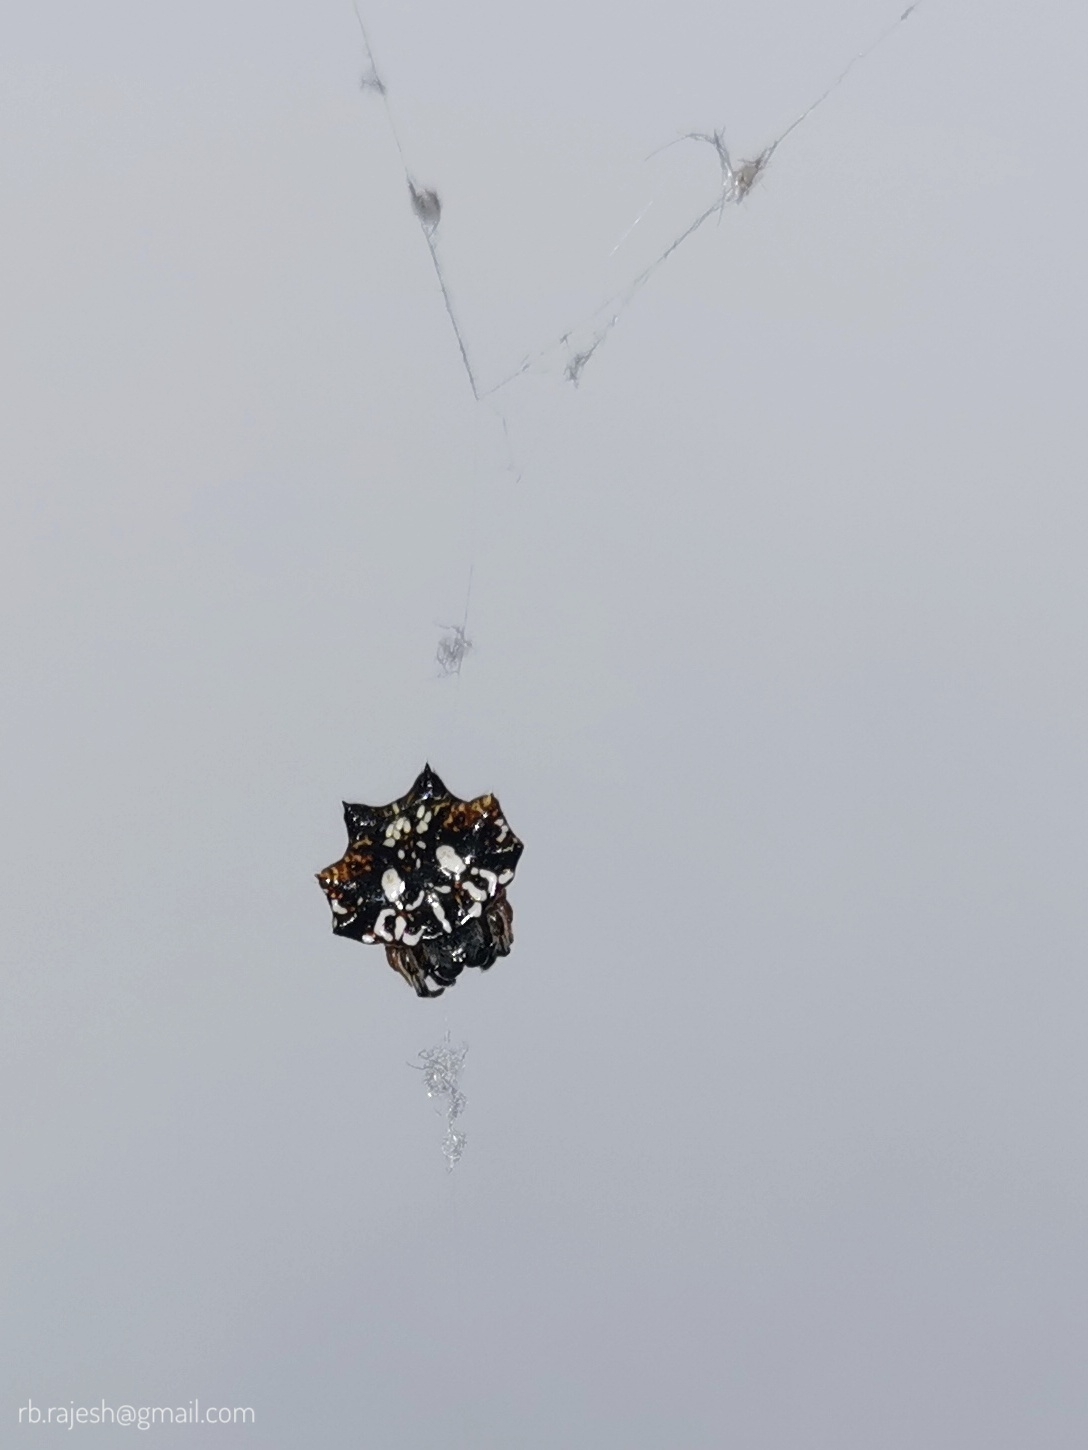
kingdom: Animalia
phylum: Arthropoda
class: Arachnida
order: Araneae
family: Araneidae
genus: Thelacantha
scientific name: Thelacantha brevispina
